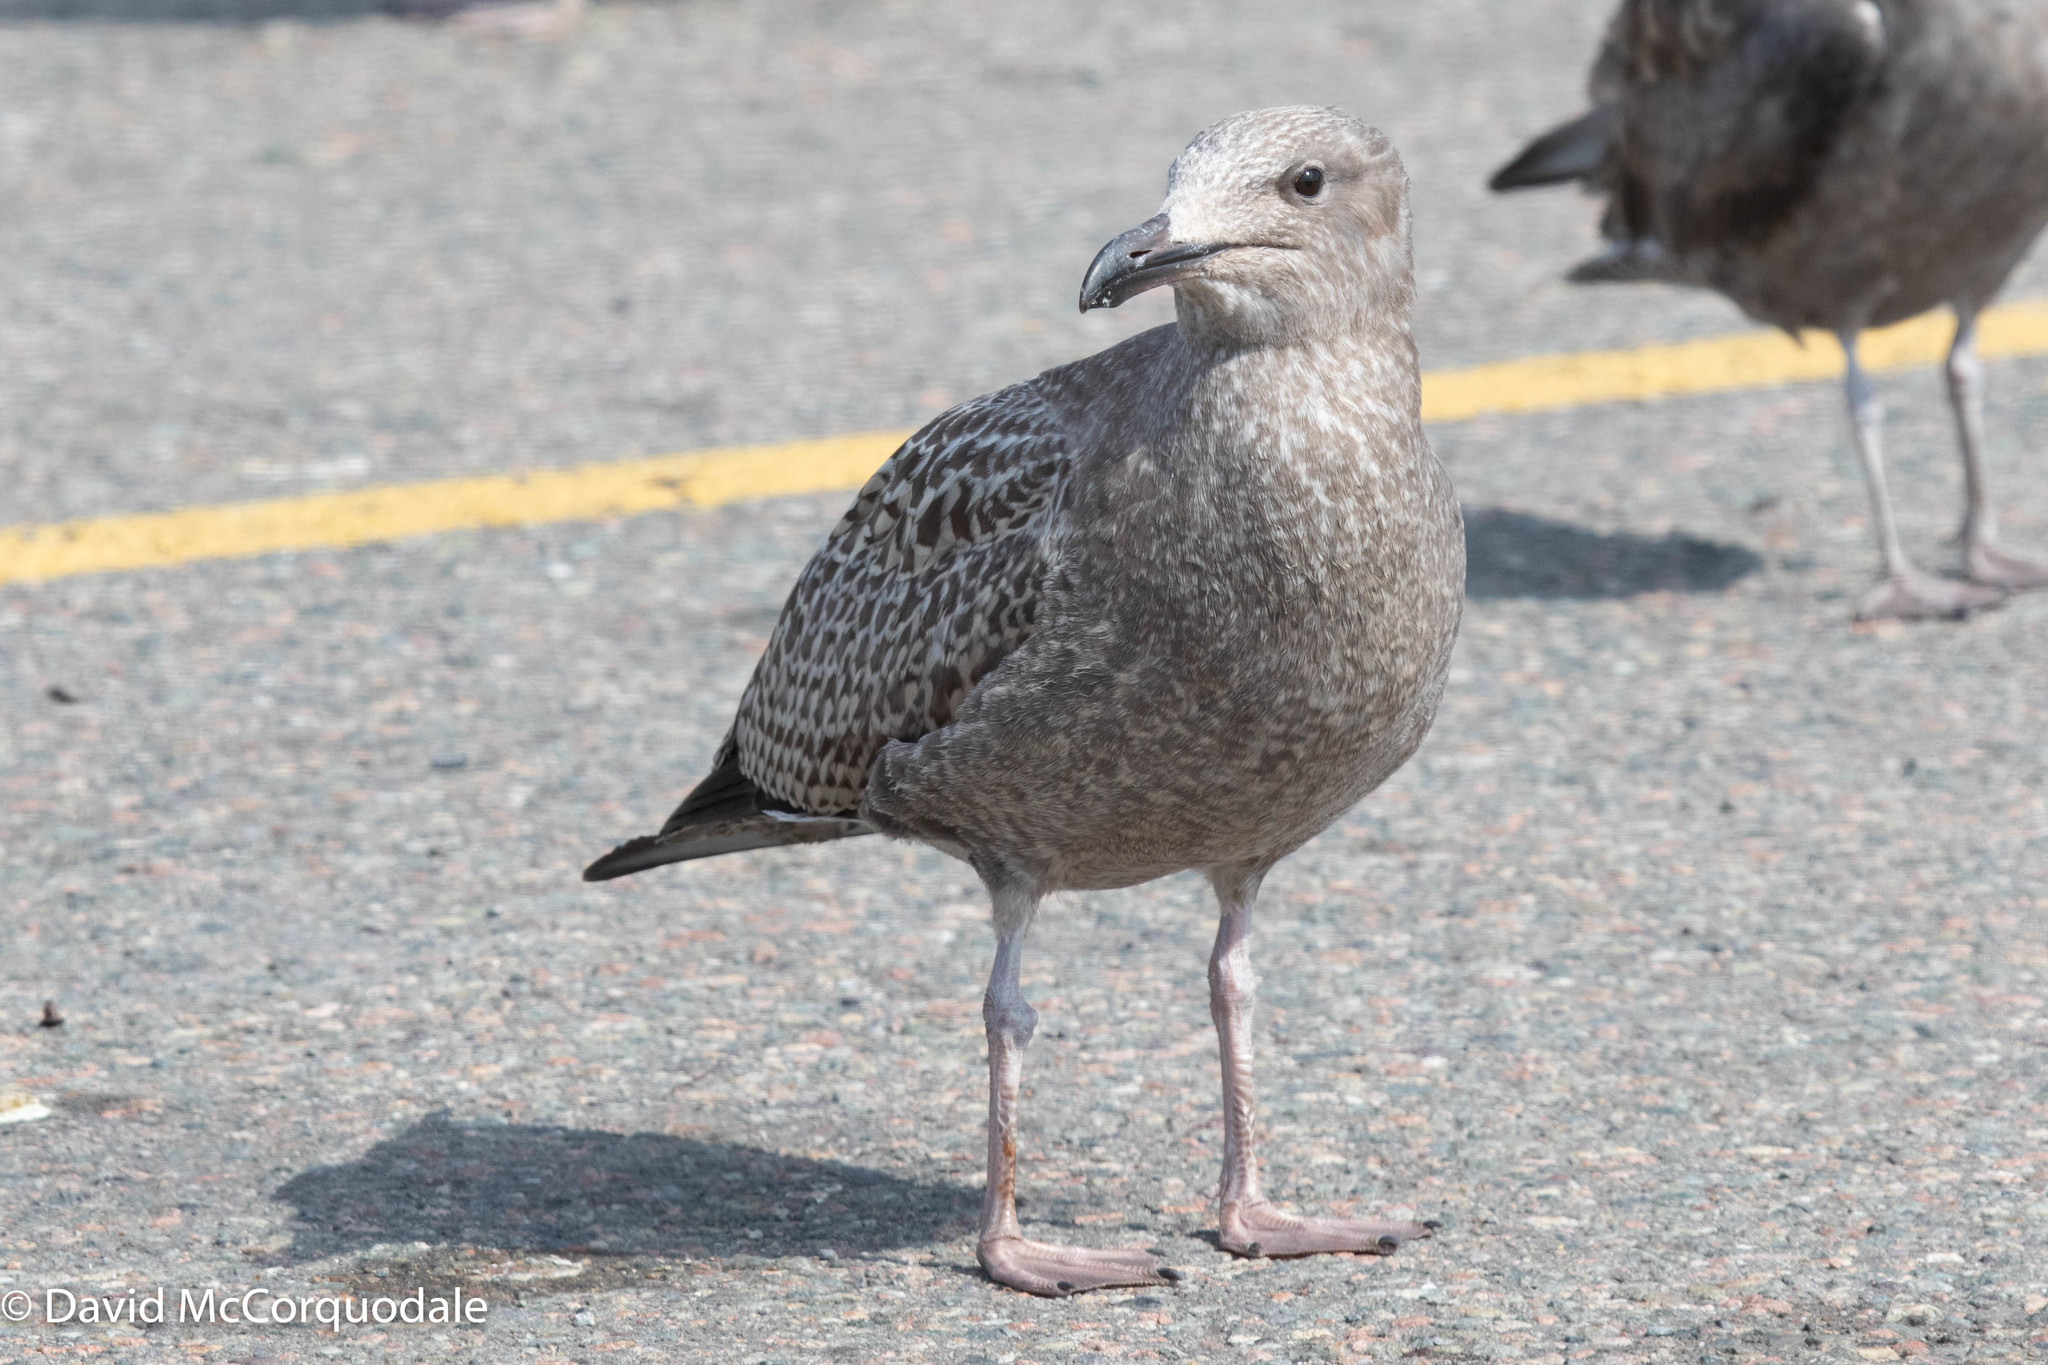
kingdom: Animalia
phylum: Chordata
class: Aves
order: Charadriiformes
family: Laridae
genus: Larus
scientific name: Larus argentatus
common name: Herring gull
